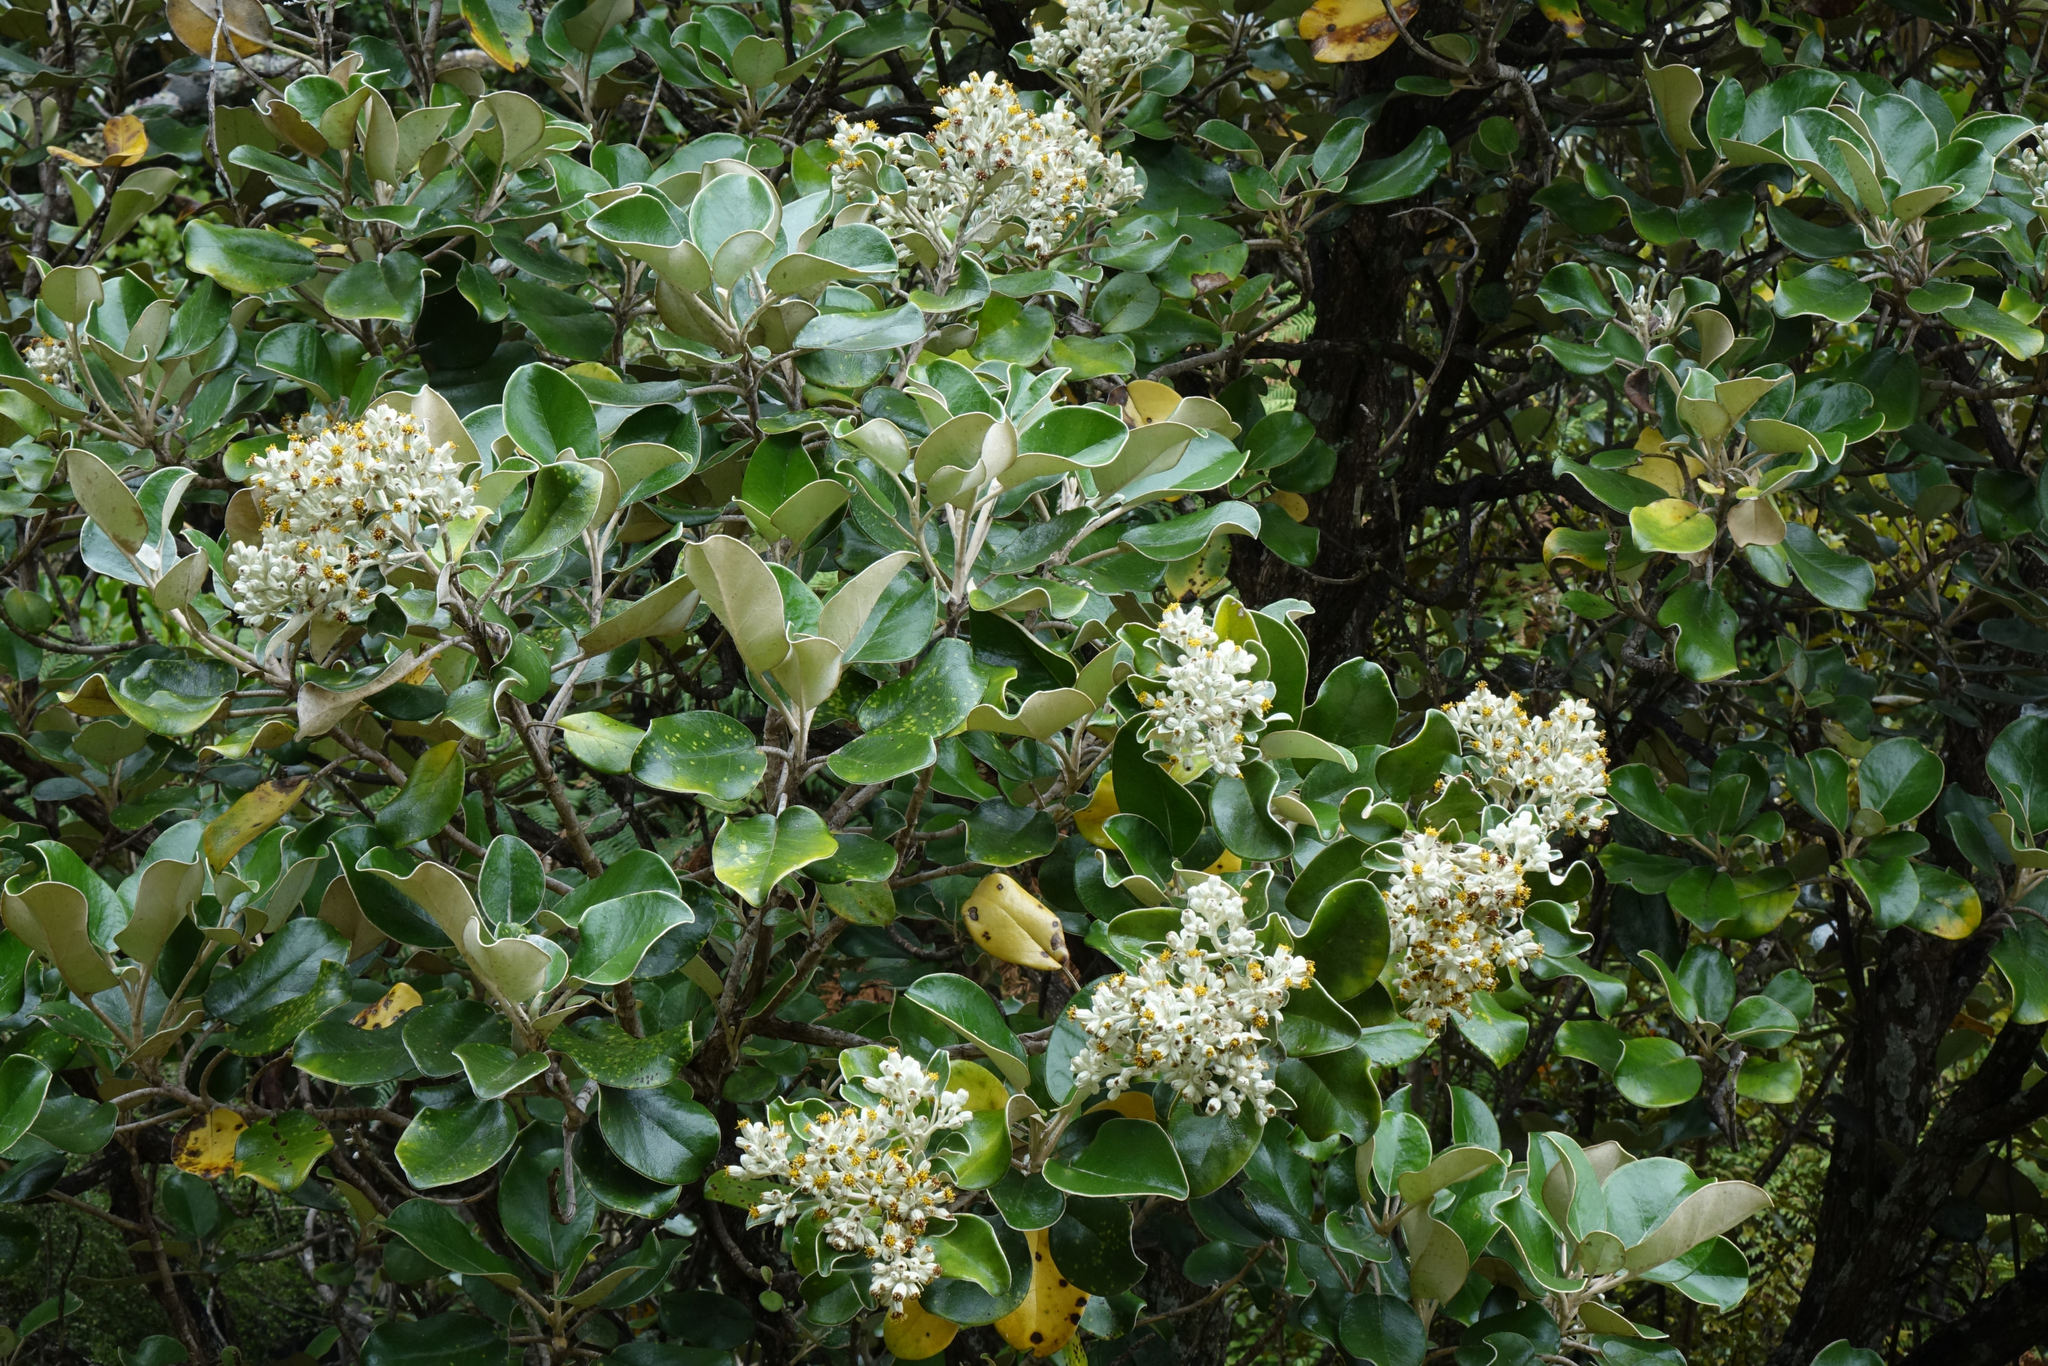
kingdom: Plantae
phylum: Tracheophyta
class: Magnoliopsida
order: Asterales
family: Asteraceae
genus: Brachyglottis
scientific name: Brachyglottis rotundifolia
